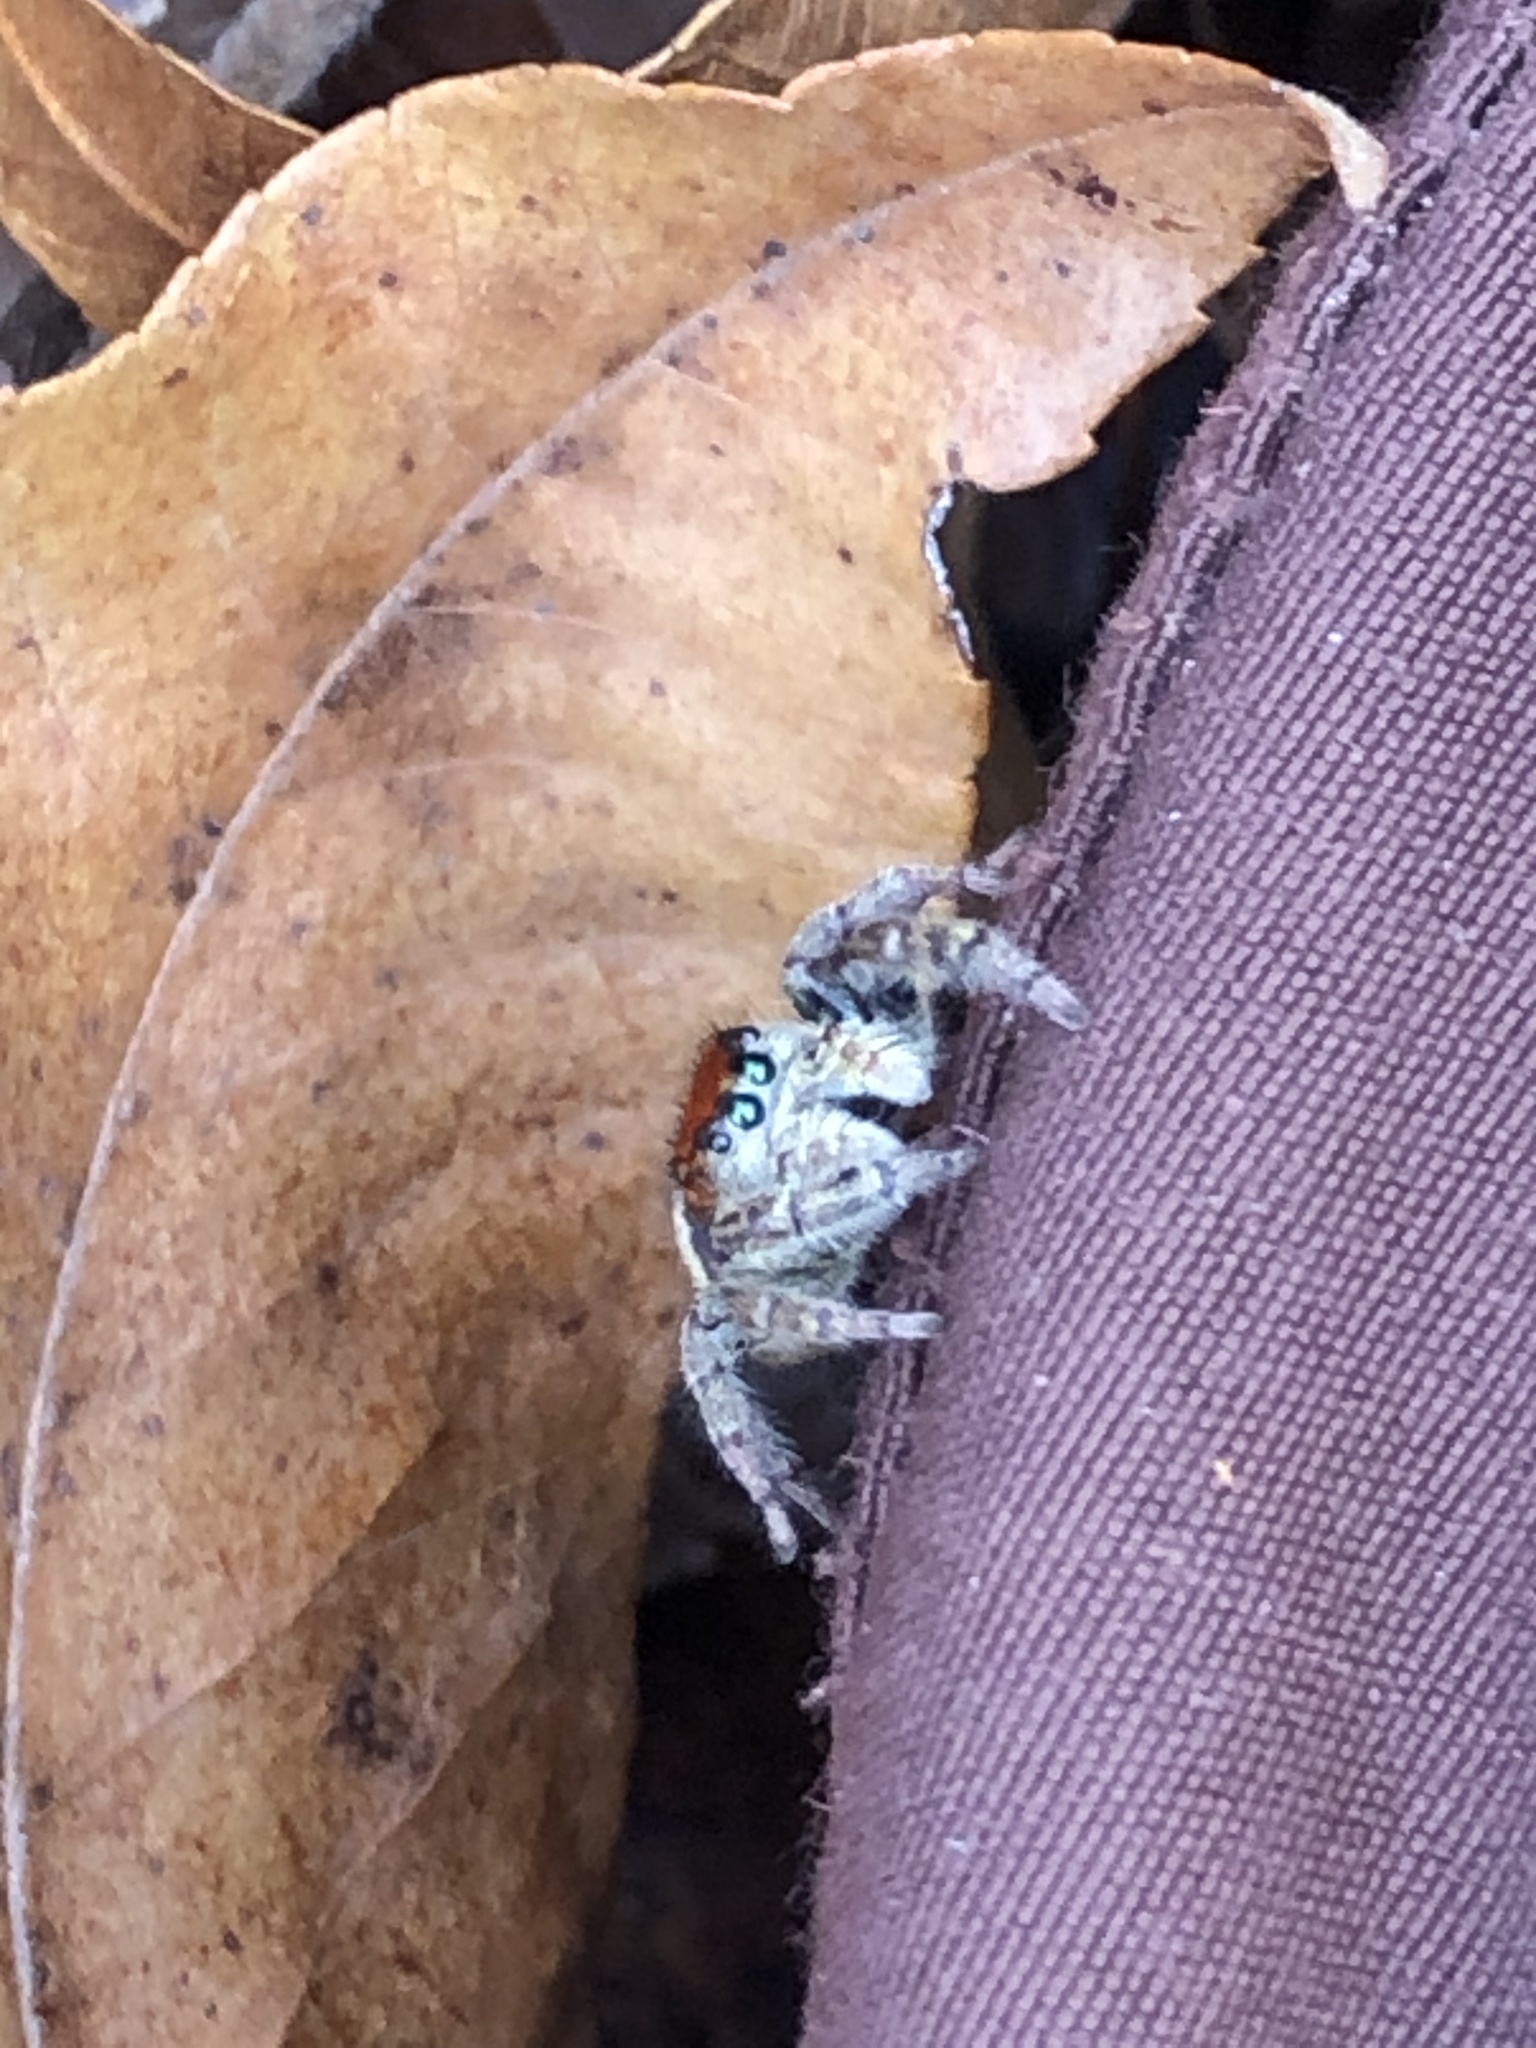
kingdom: Animalia
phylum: Arthropoda
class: Arachnida
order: Araneae
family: Salticidae
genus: Phidippus
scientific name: Phidippus whitmani
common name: Whitman's jumping spider
